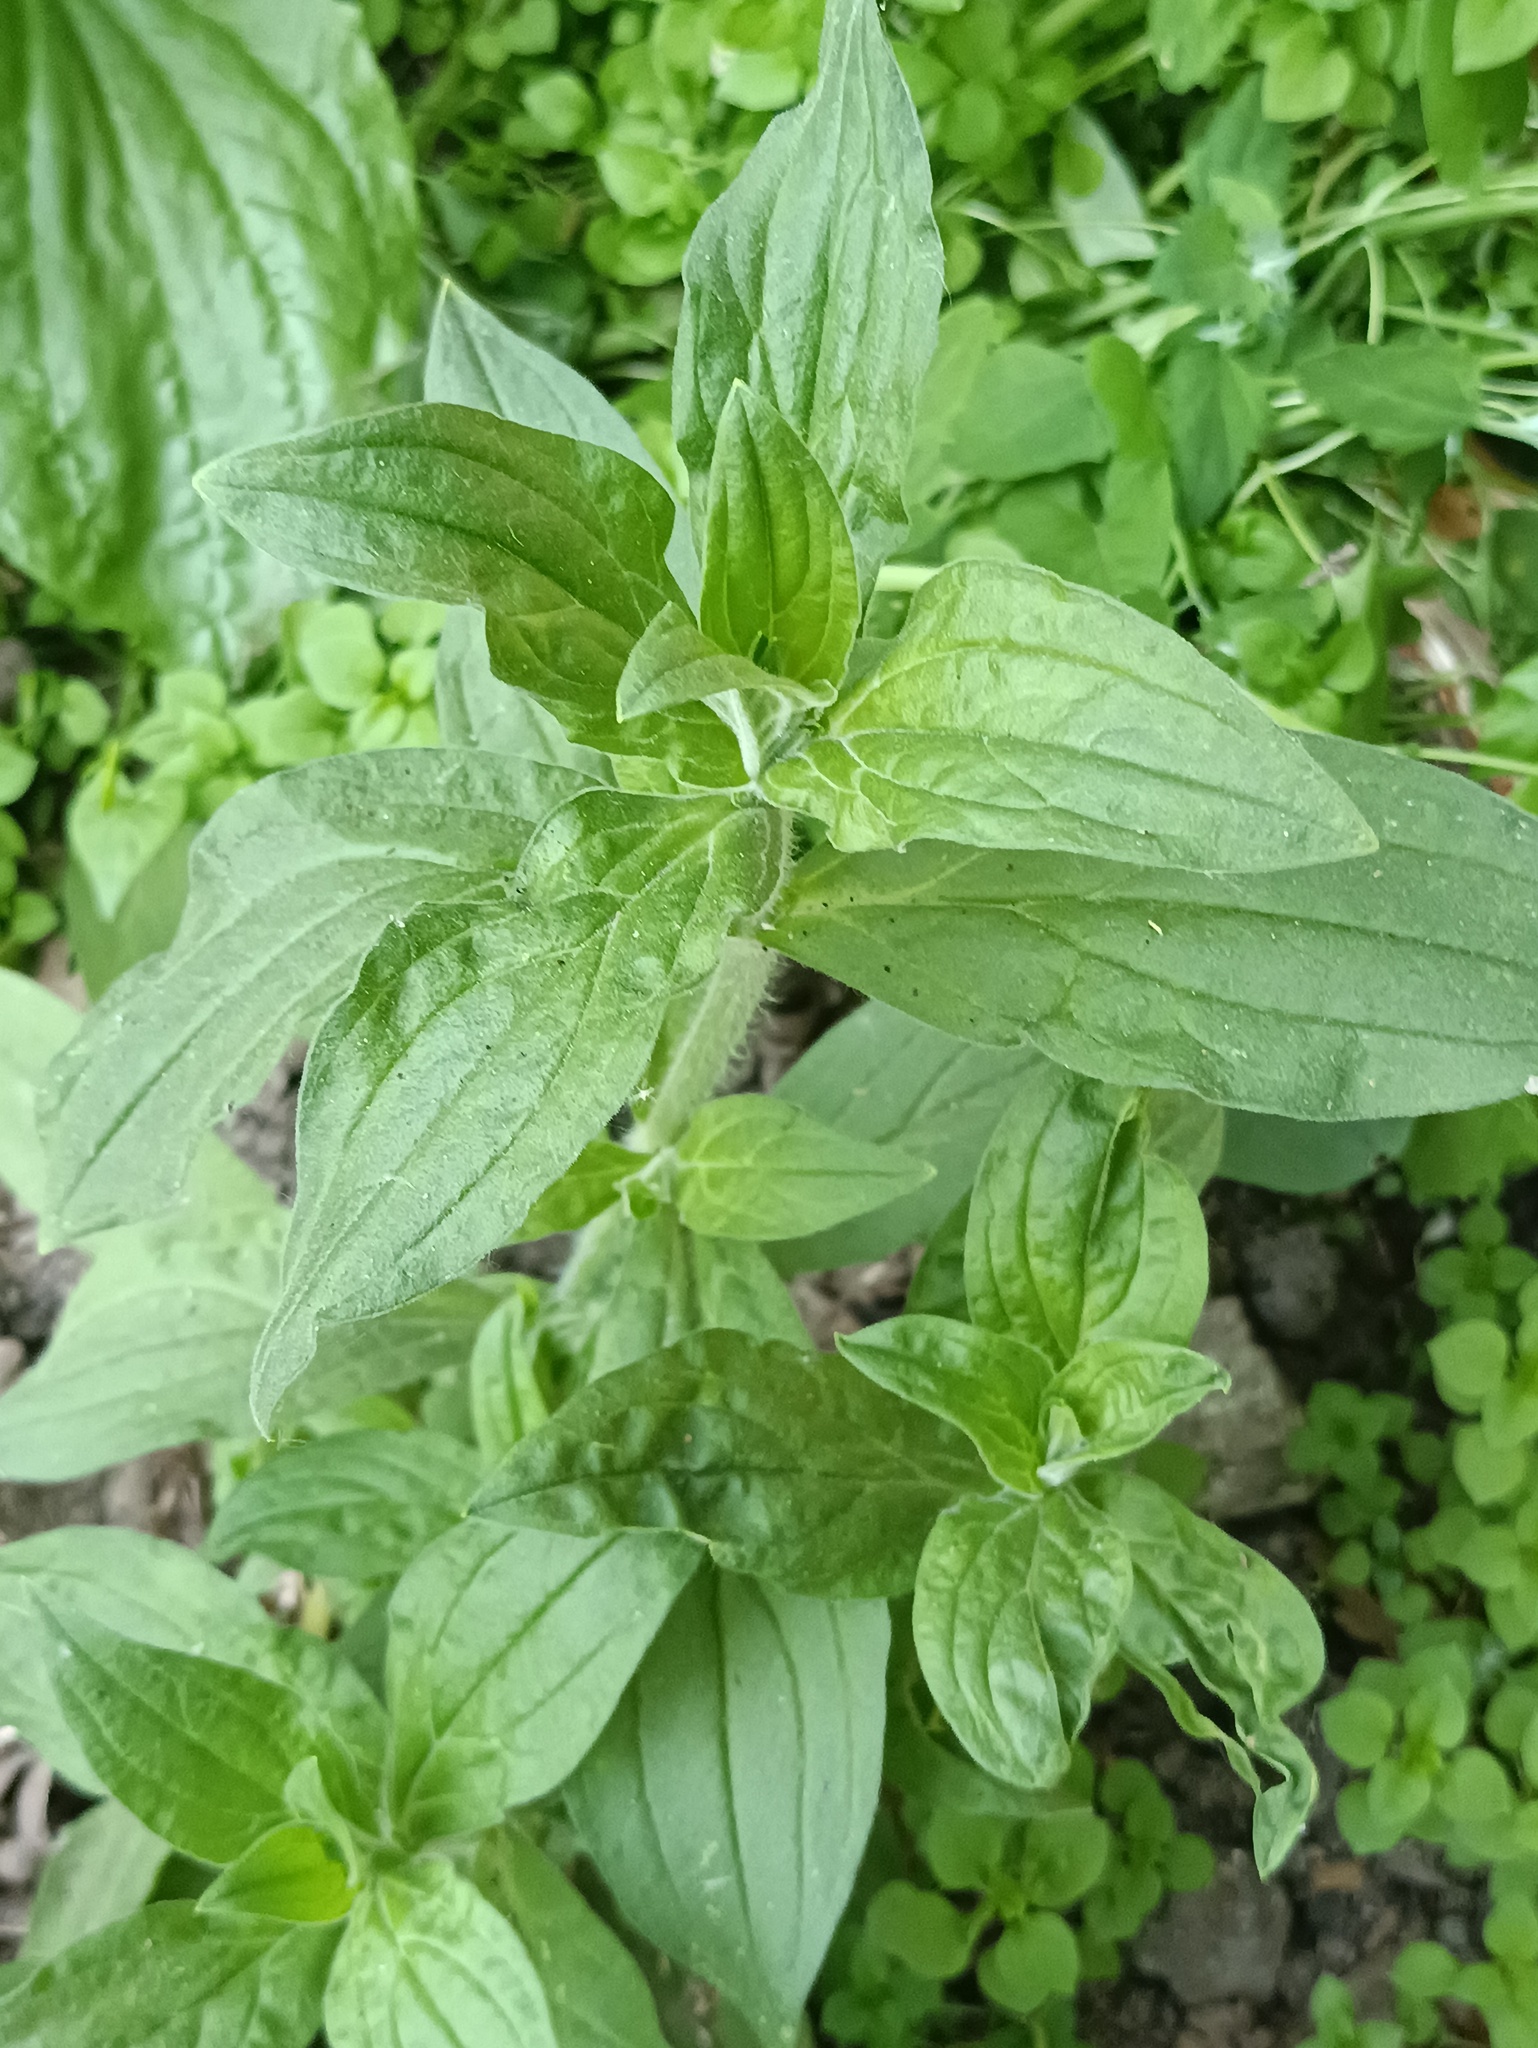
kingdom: Plantae
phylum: Tracheophyta
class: Magnoliopsida
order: Caryophyllales
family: Caryophyllaceae
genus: Silene
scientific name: Silene latifolia
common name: White campion
